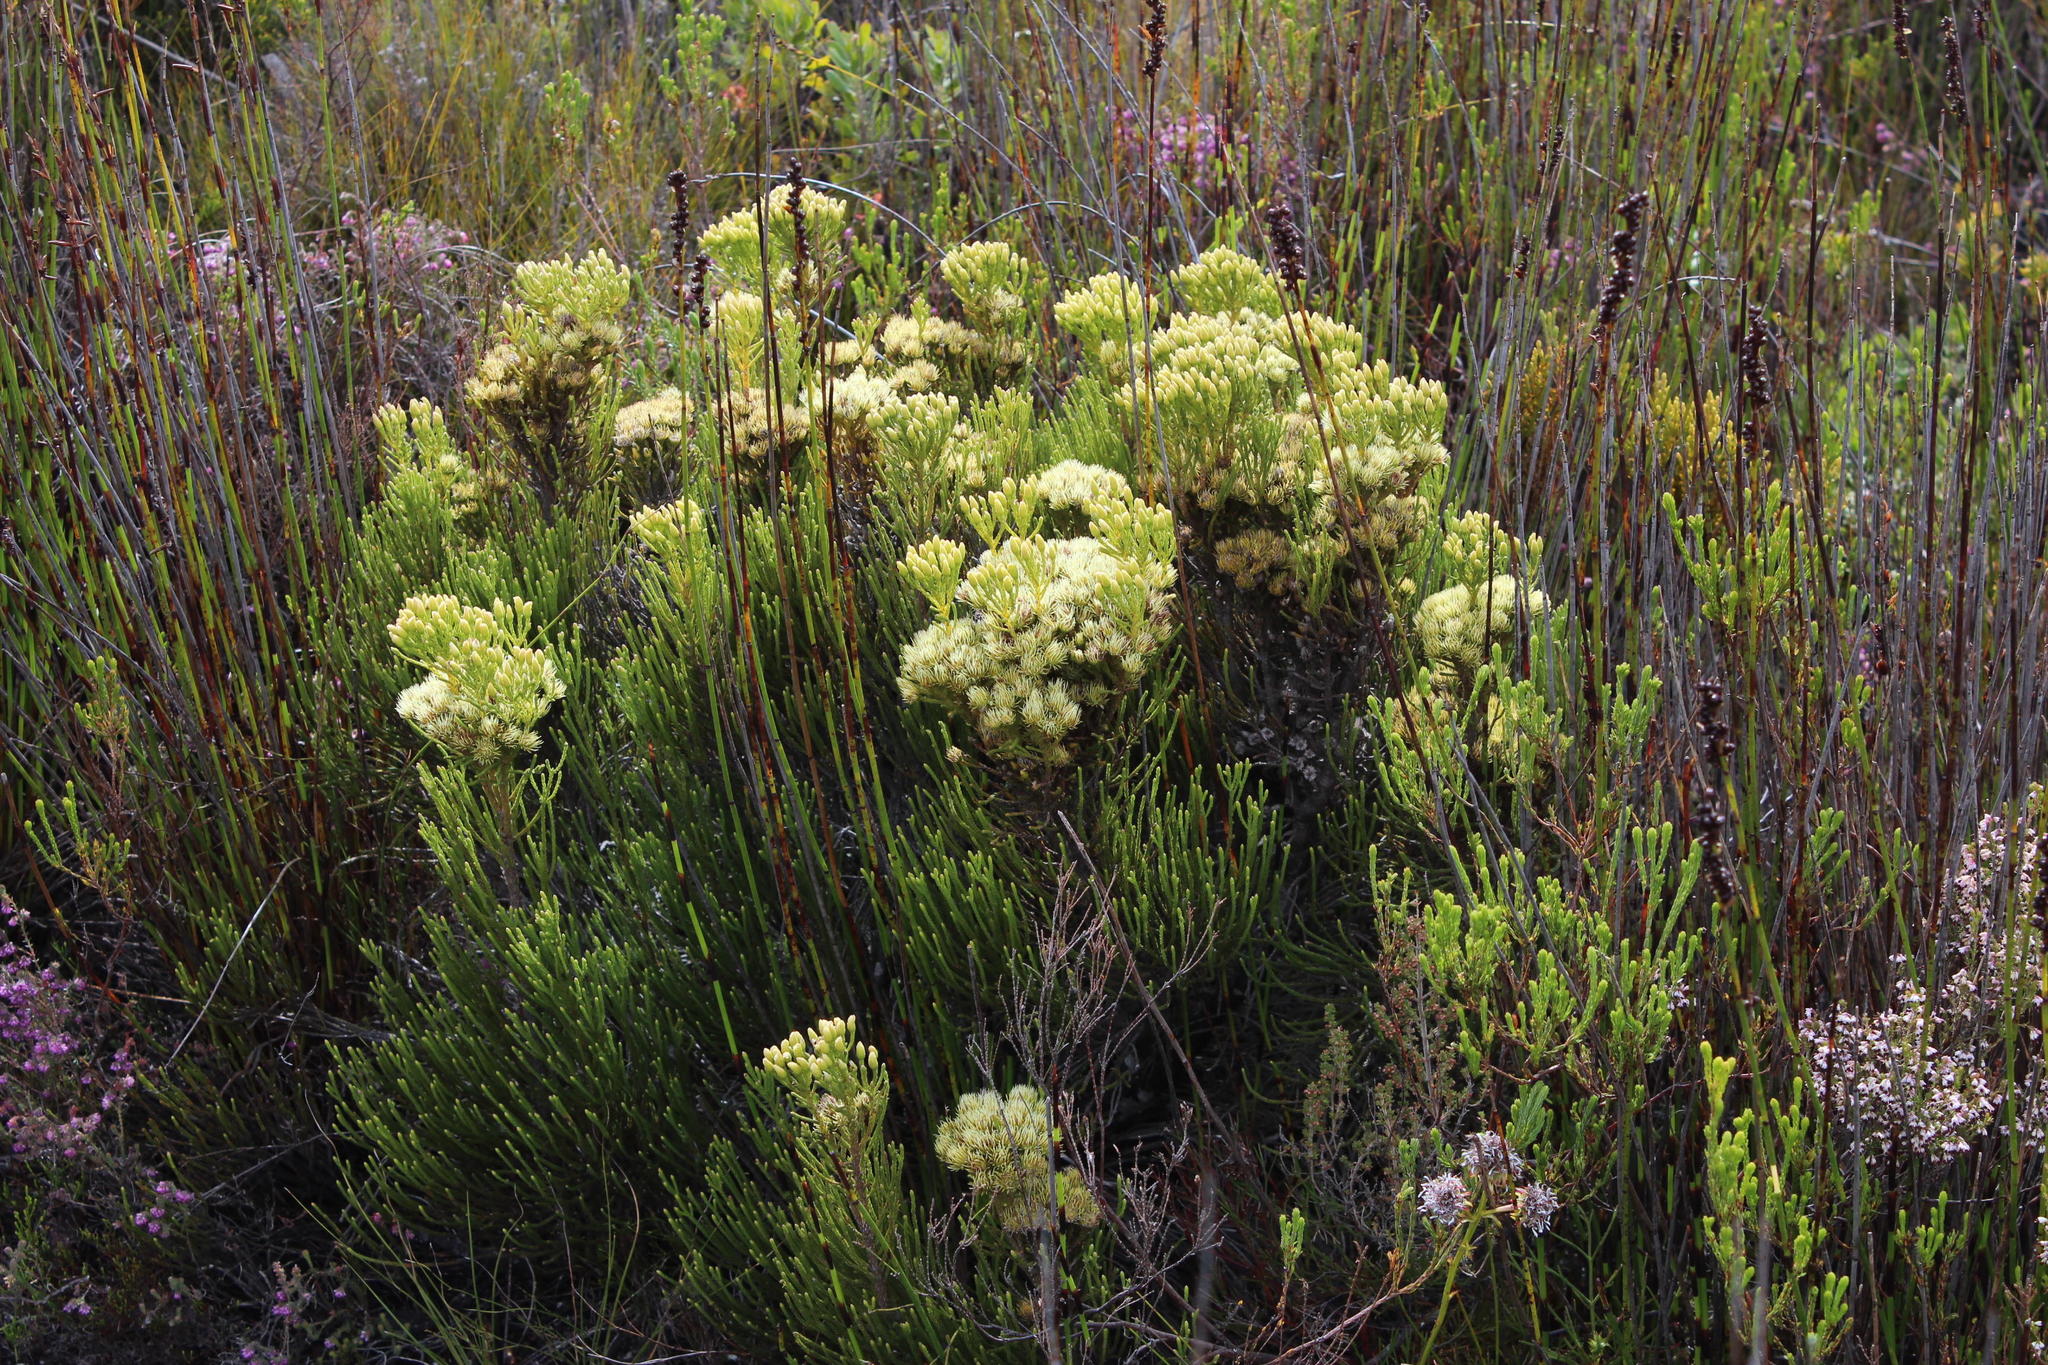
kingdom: Plantae
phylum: Tracheophyta
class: Magnoliopsida
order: Bruniales
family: Bruniaceae
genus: Brunia
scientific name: Brunia paleacea
